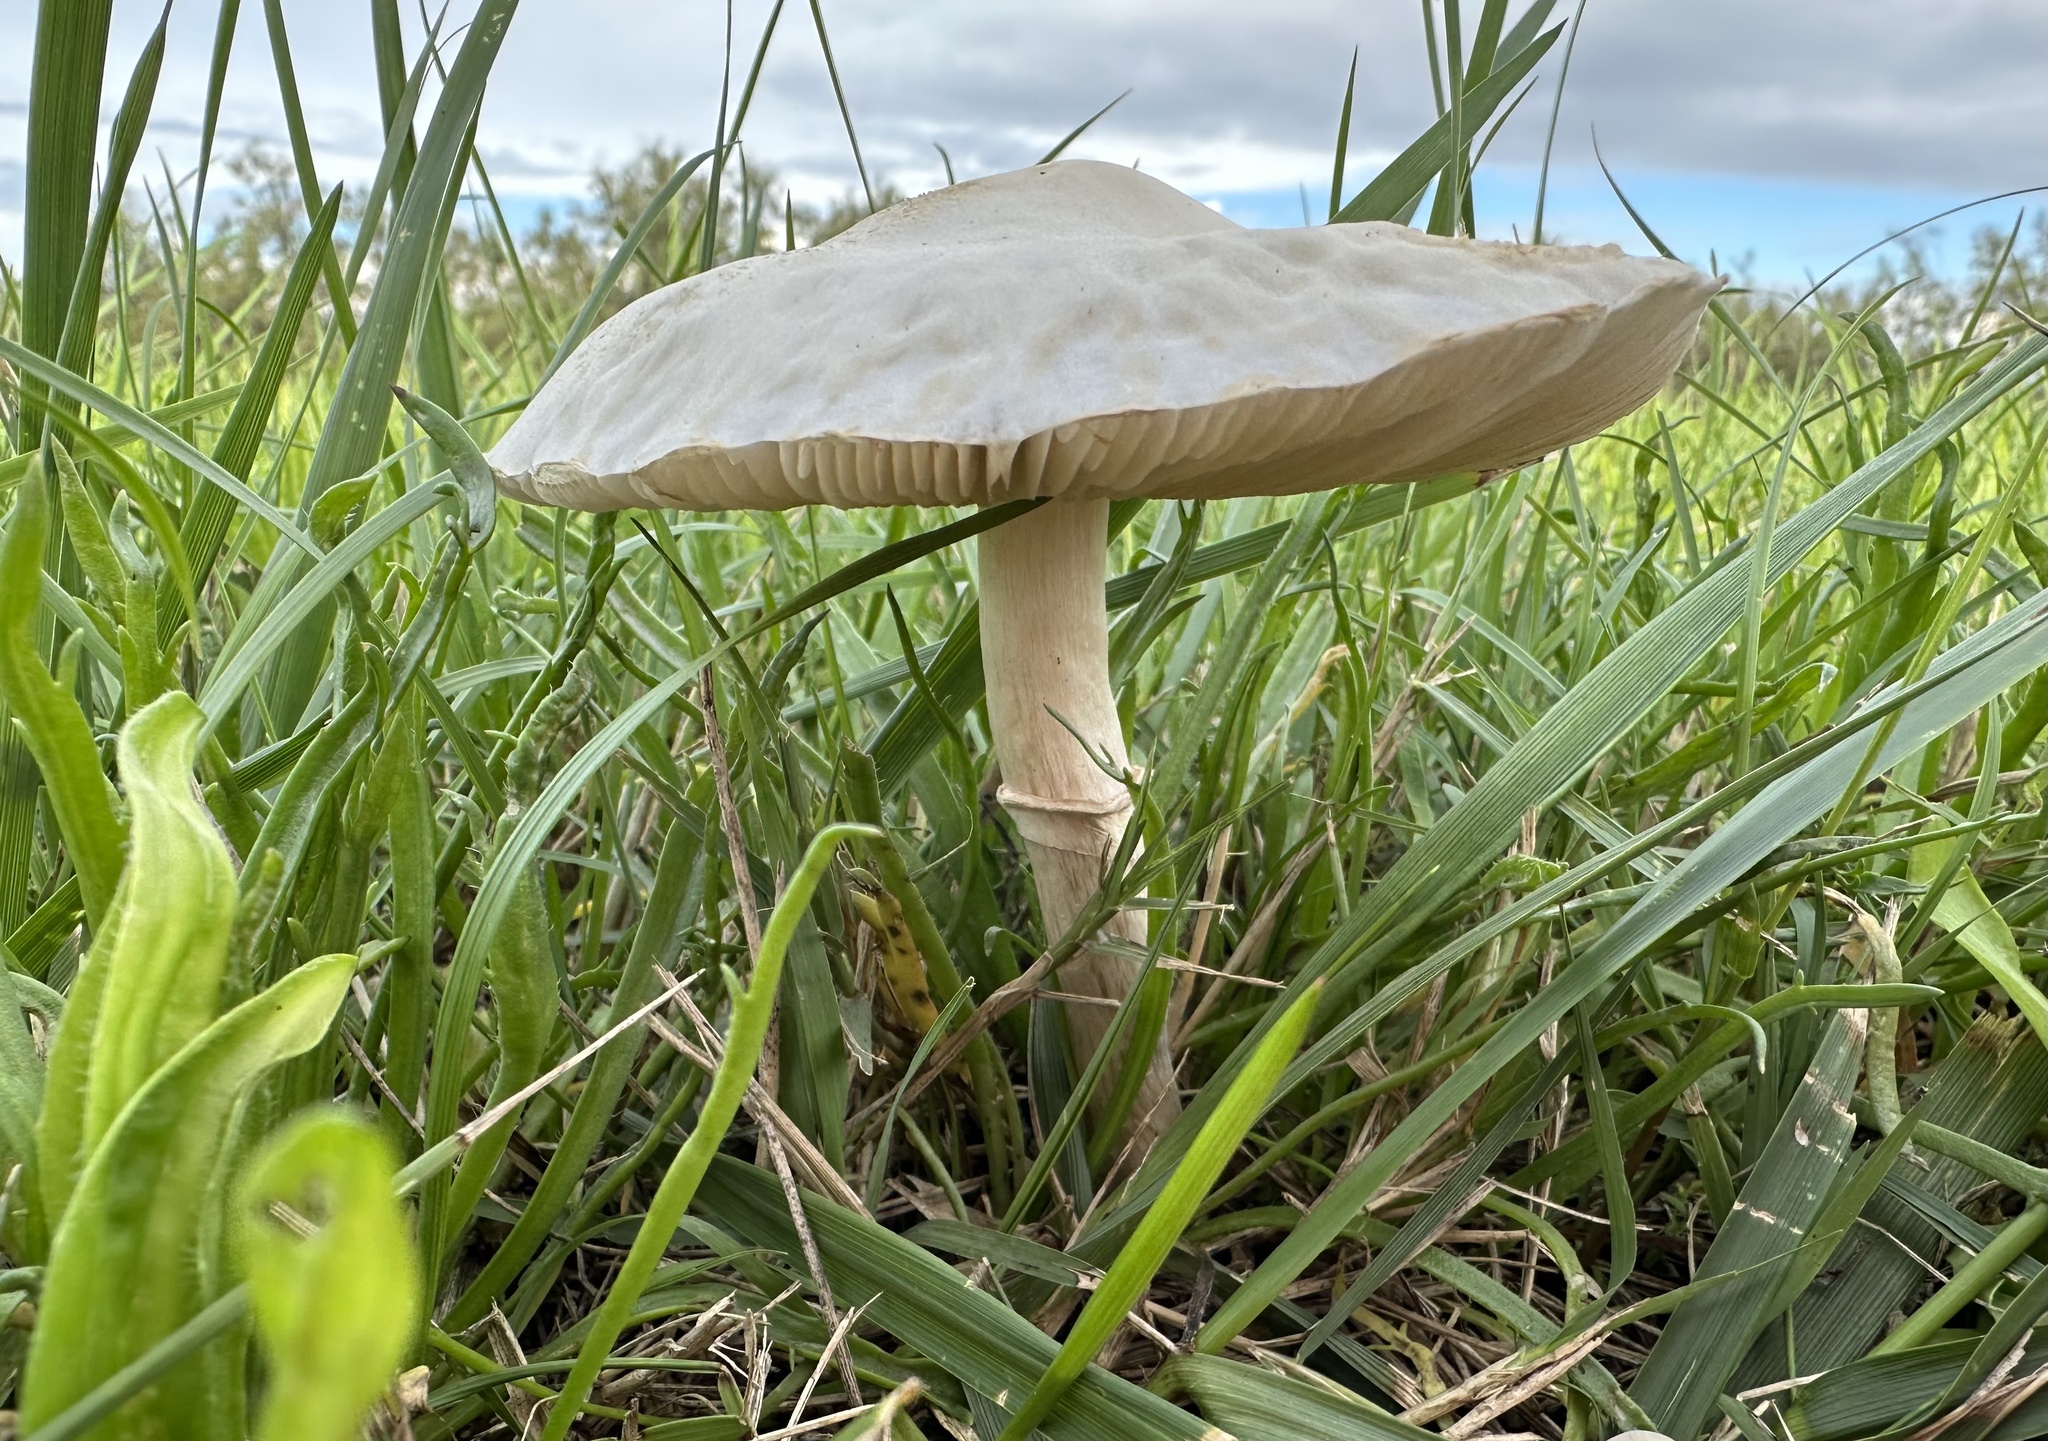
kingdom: Fungi
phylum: Basidiomycota
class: Agaricomycetes
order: Agaricales
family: Agaricaceae
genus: Leucoagaricus
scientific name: Leucoagaricus leucothites
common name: White dapperling
